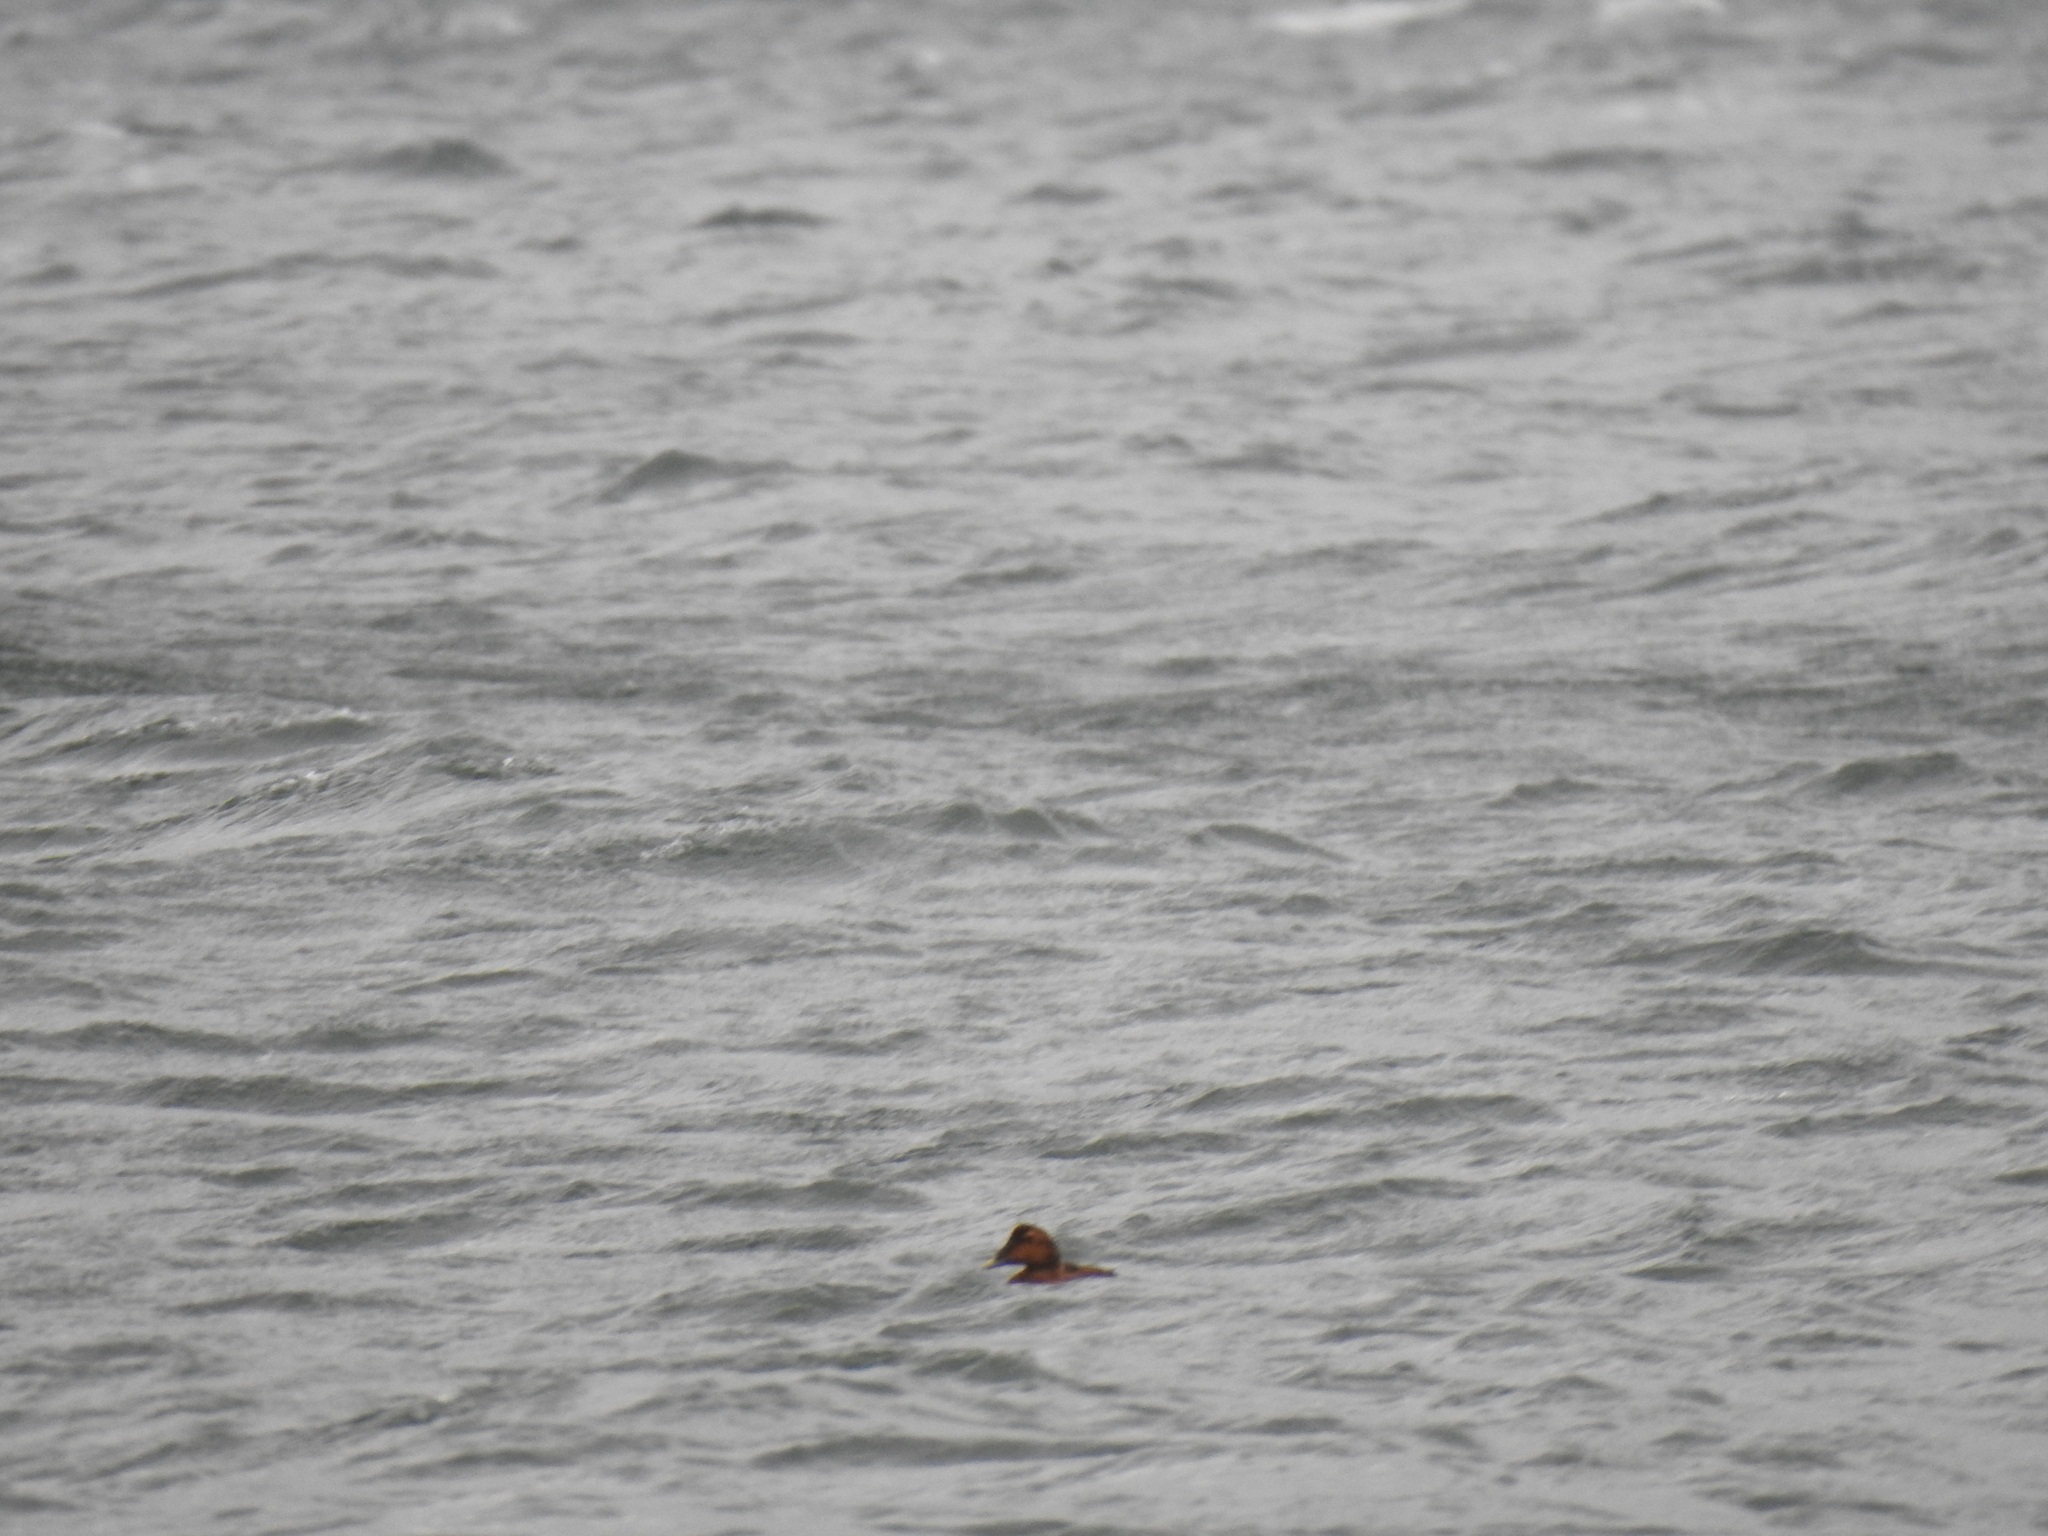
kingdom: Animalia
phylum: Chordata
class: Aves
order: Anseriformes
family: Anatidae
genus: Somateria
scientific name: Somateria mollissima
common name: Common eider
